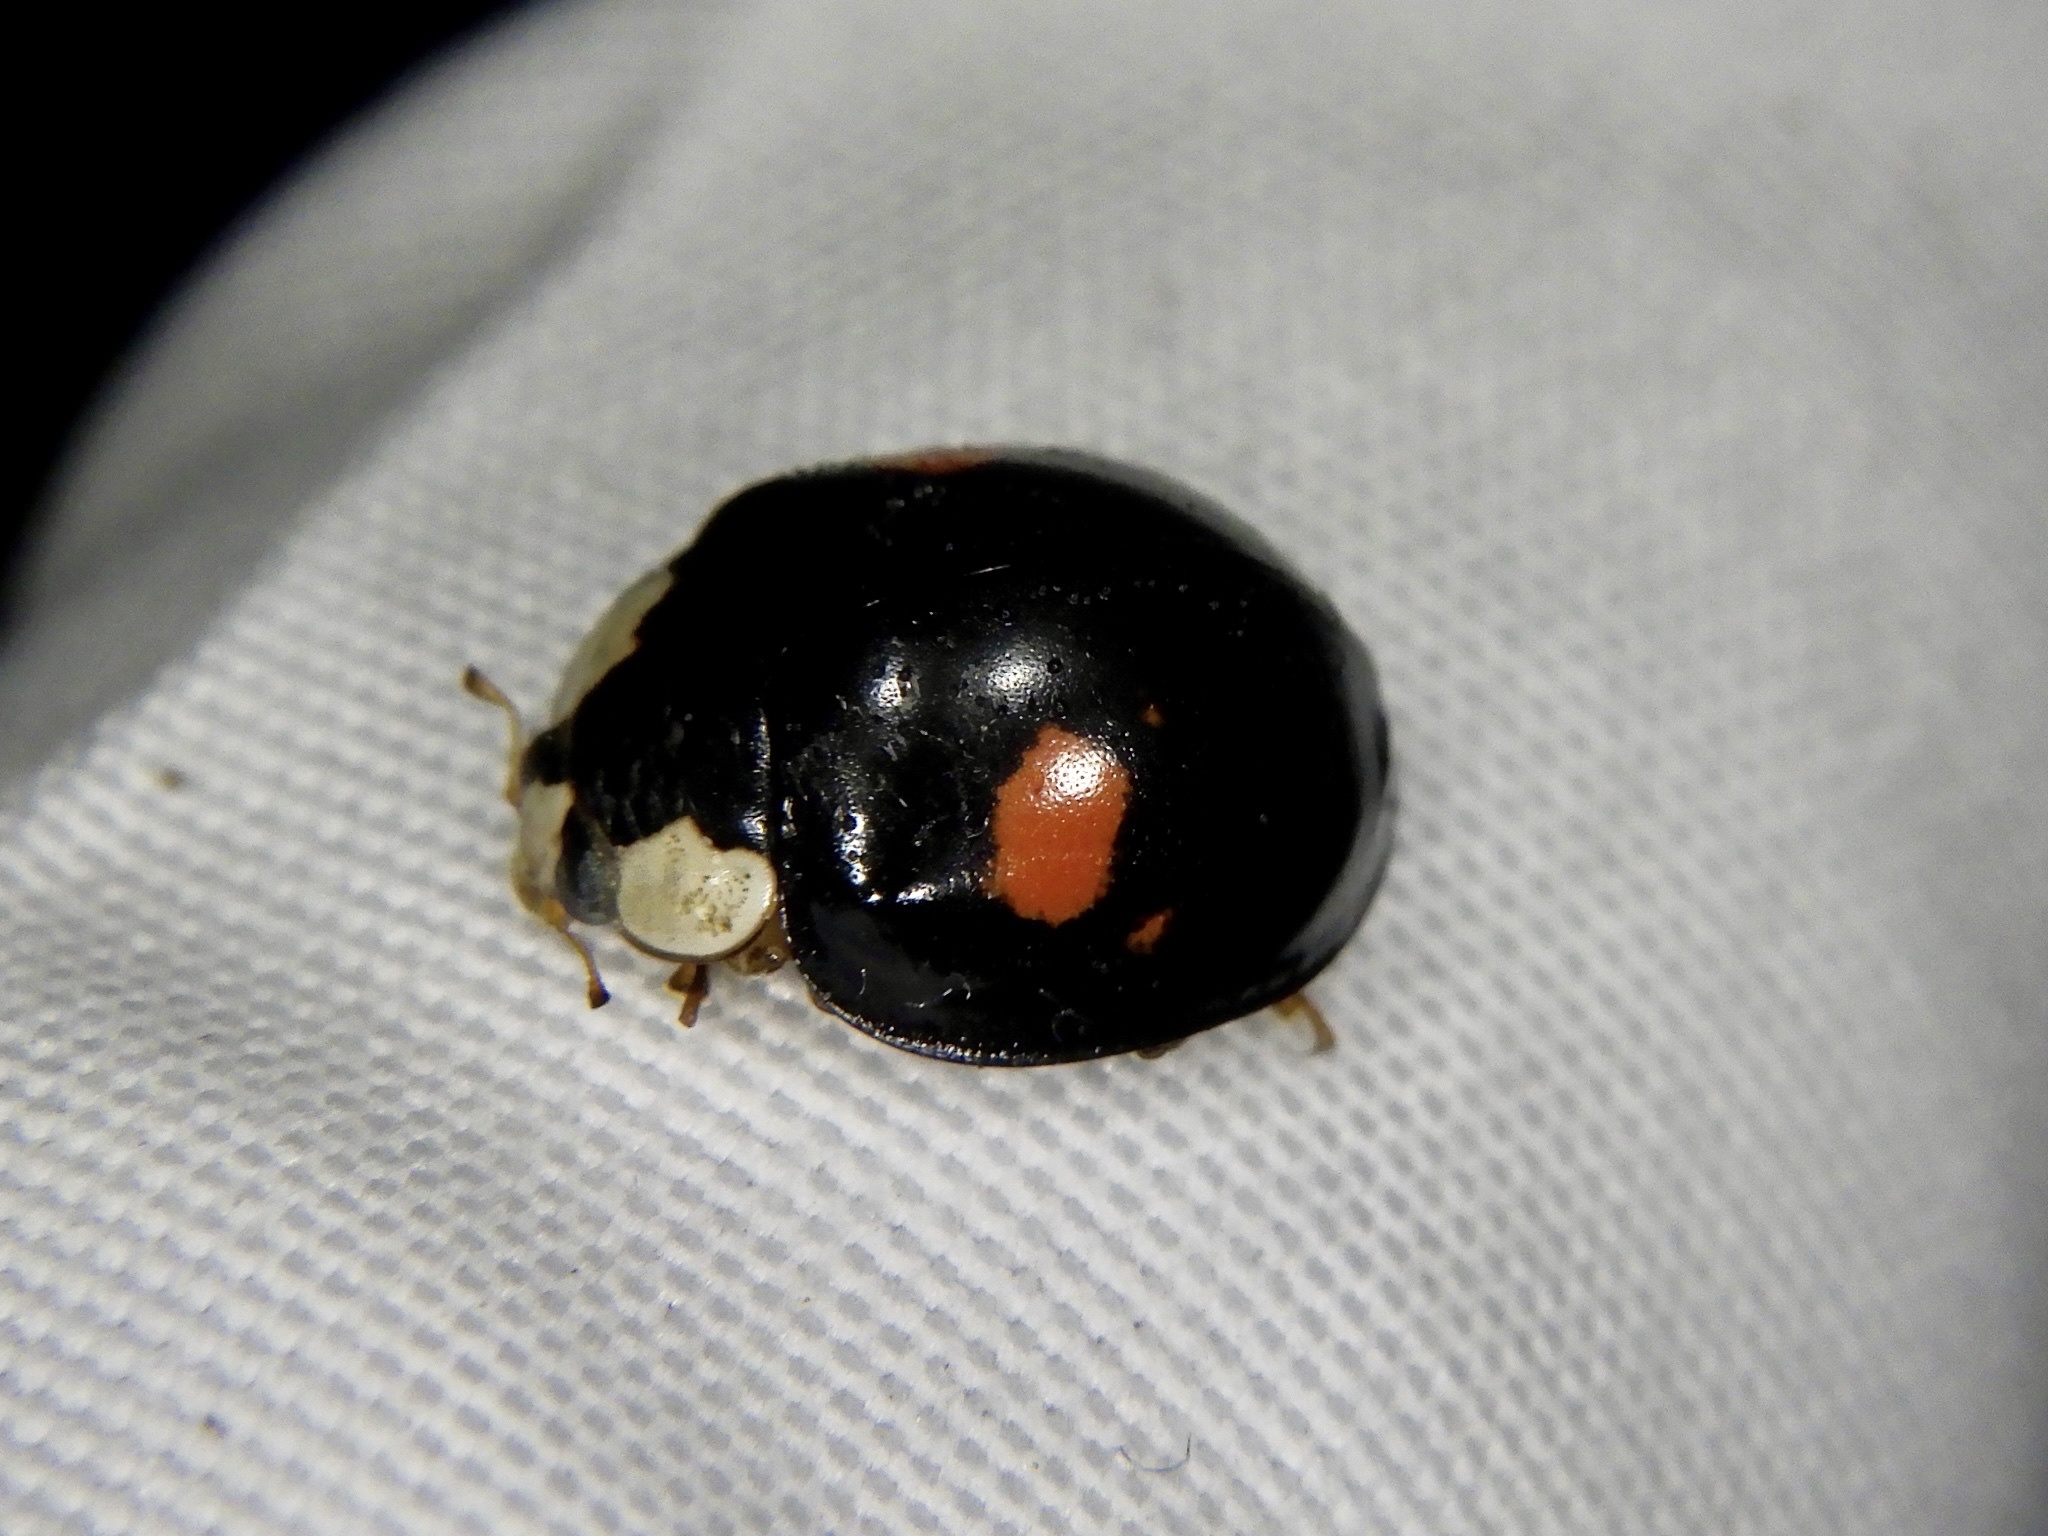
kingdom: Animalia
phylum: Arthropoda
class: Insecta
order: Coleoptera
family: Coccinellidae
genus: Harmonia
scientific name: Harmonia axyridis
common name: Harlequin ladybird
